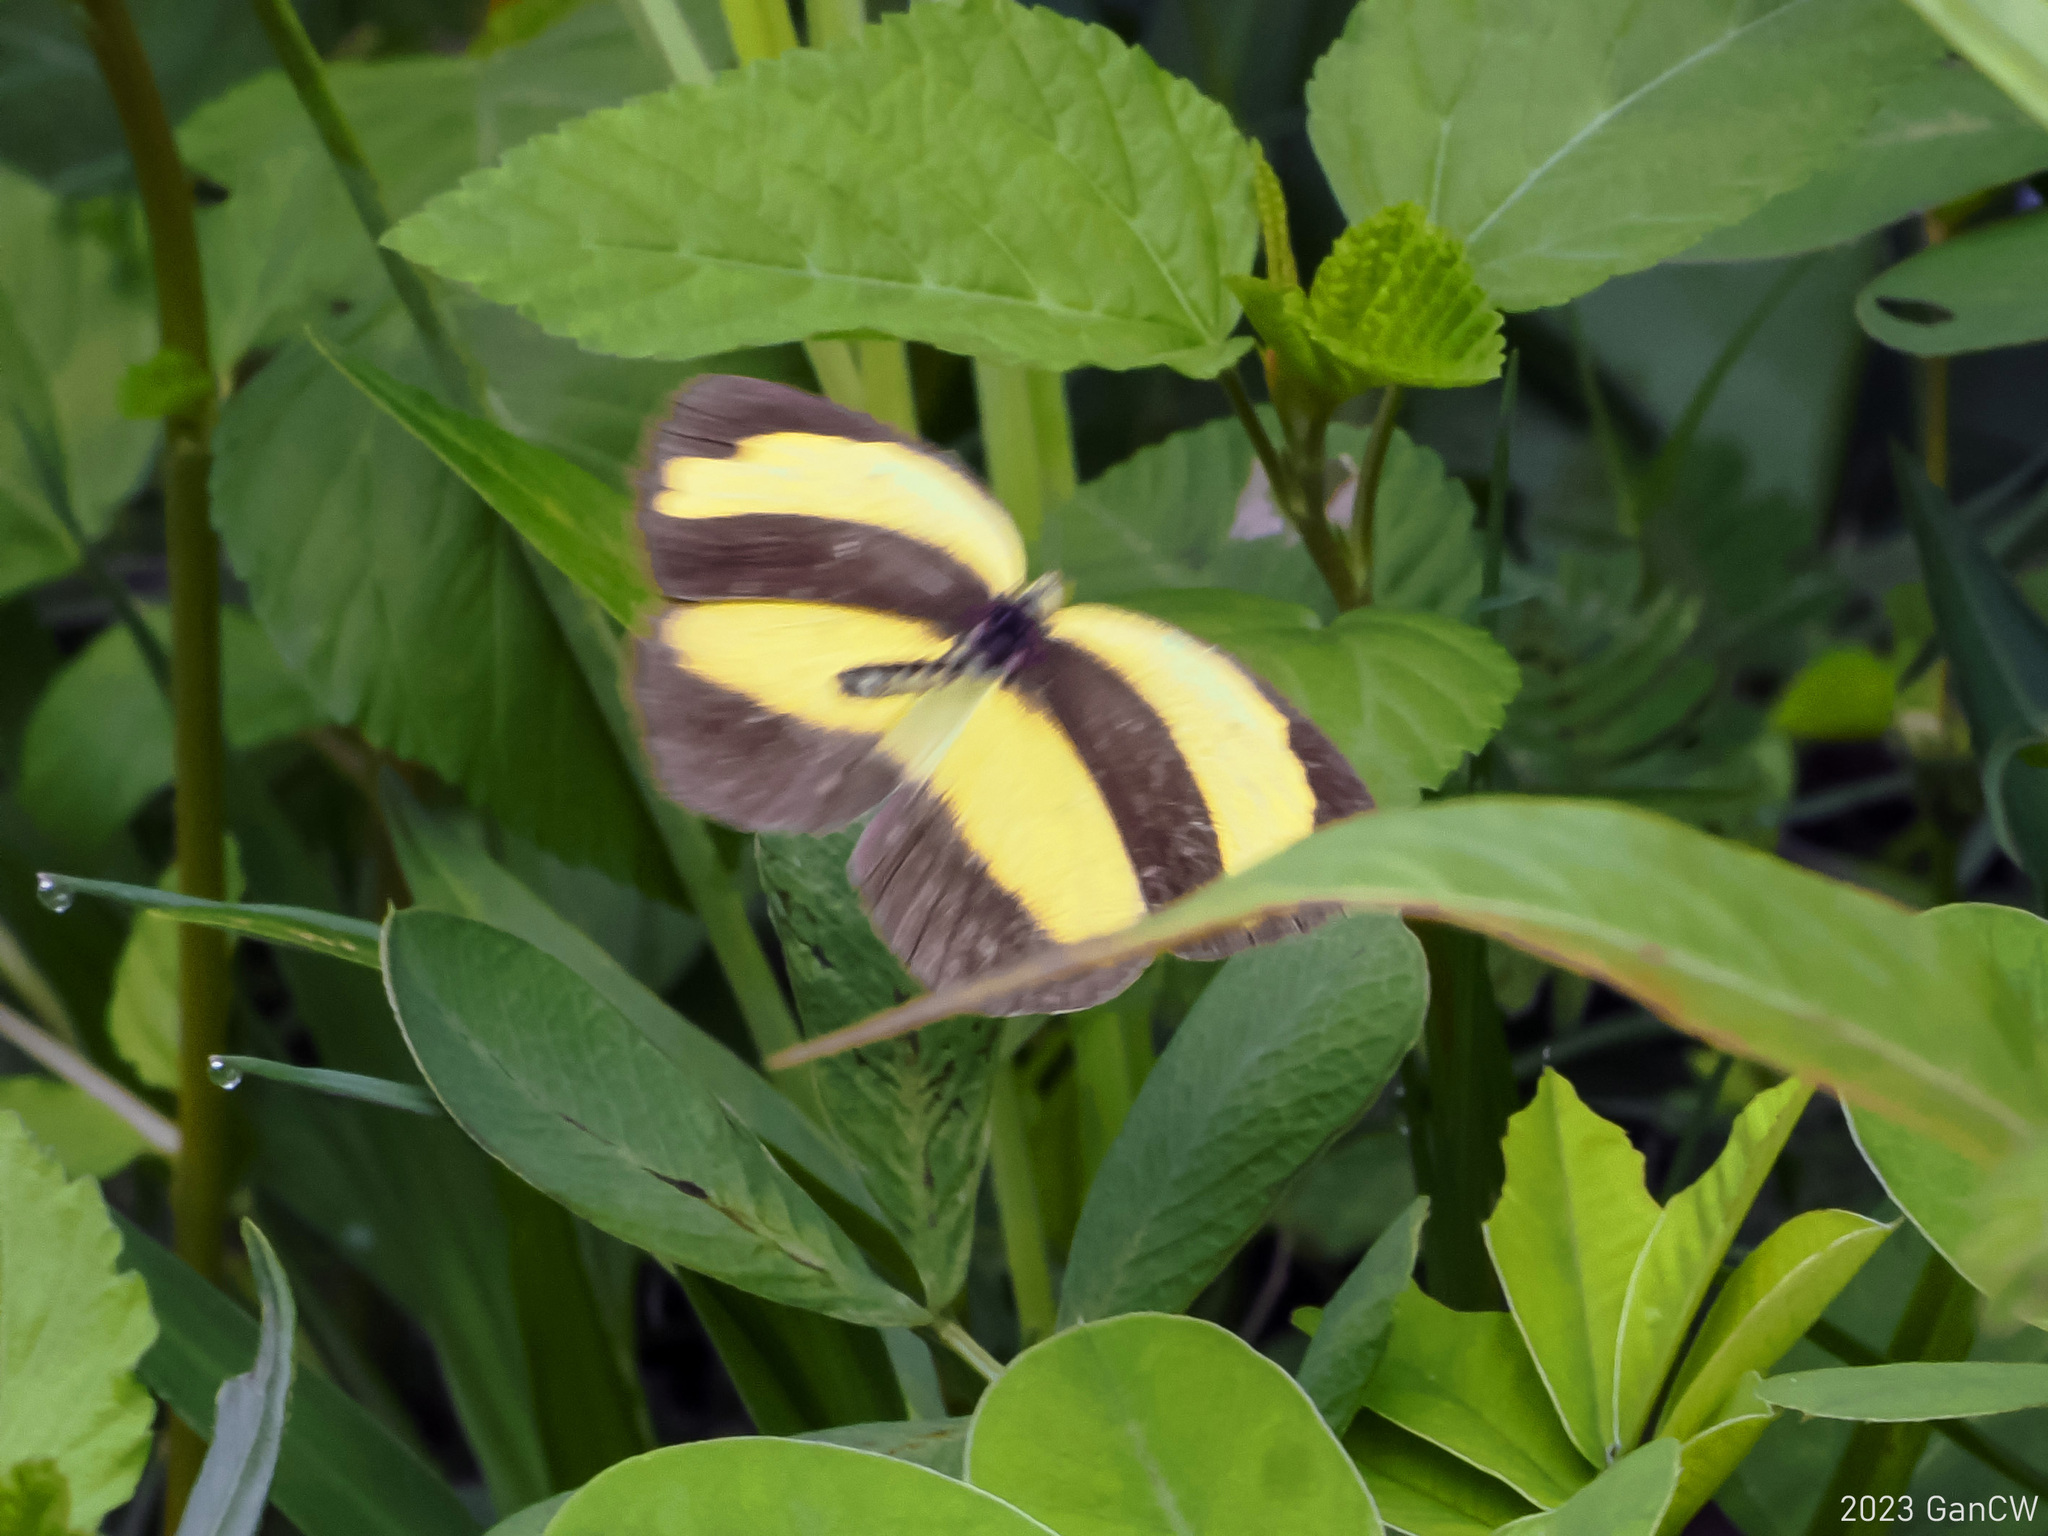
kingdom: Animalia
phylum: Arthropoda
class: Insecta
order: Lepidoptera
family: Pieridae
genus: Eurema
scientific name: Eurema alitha
